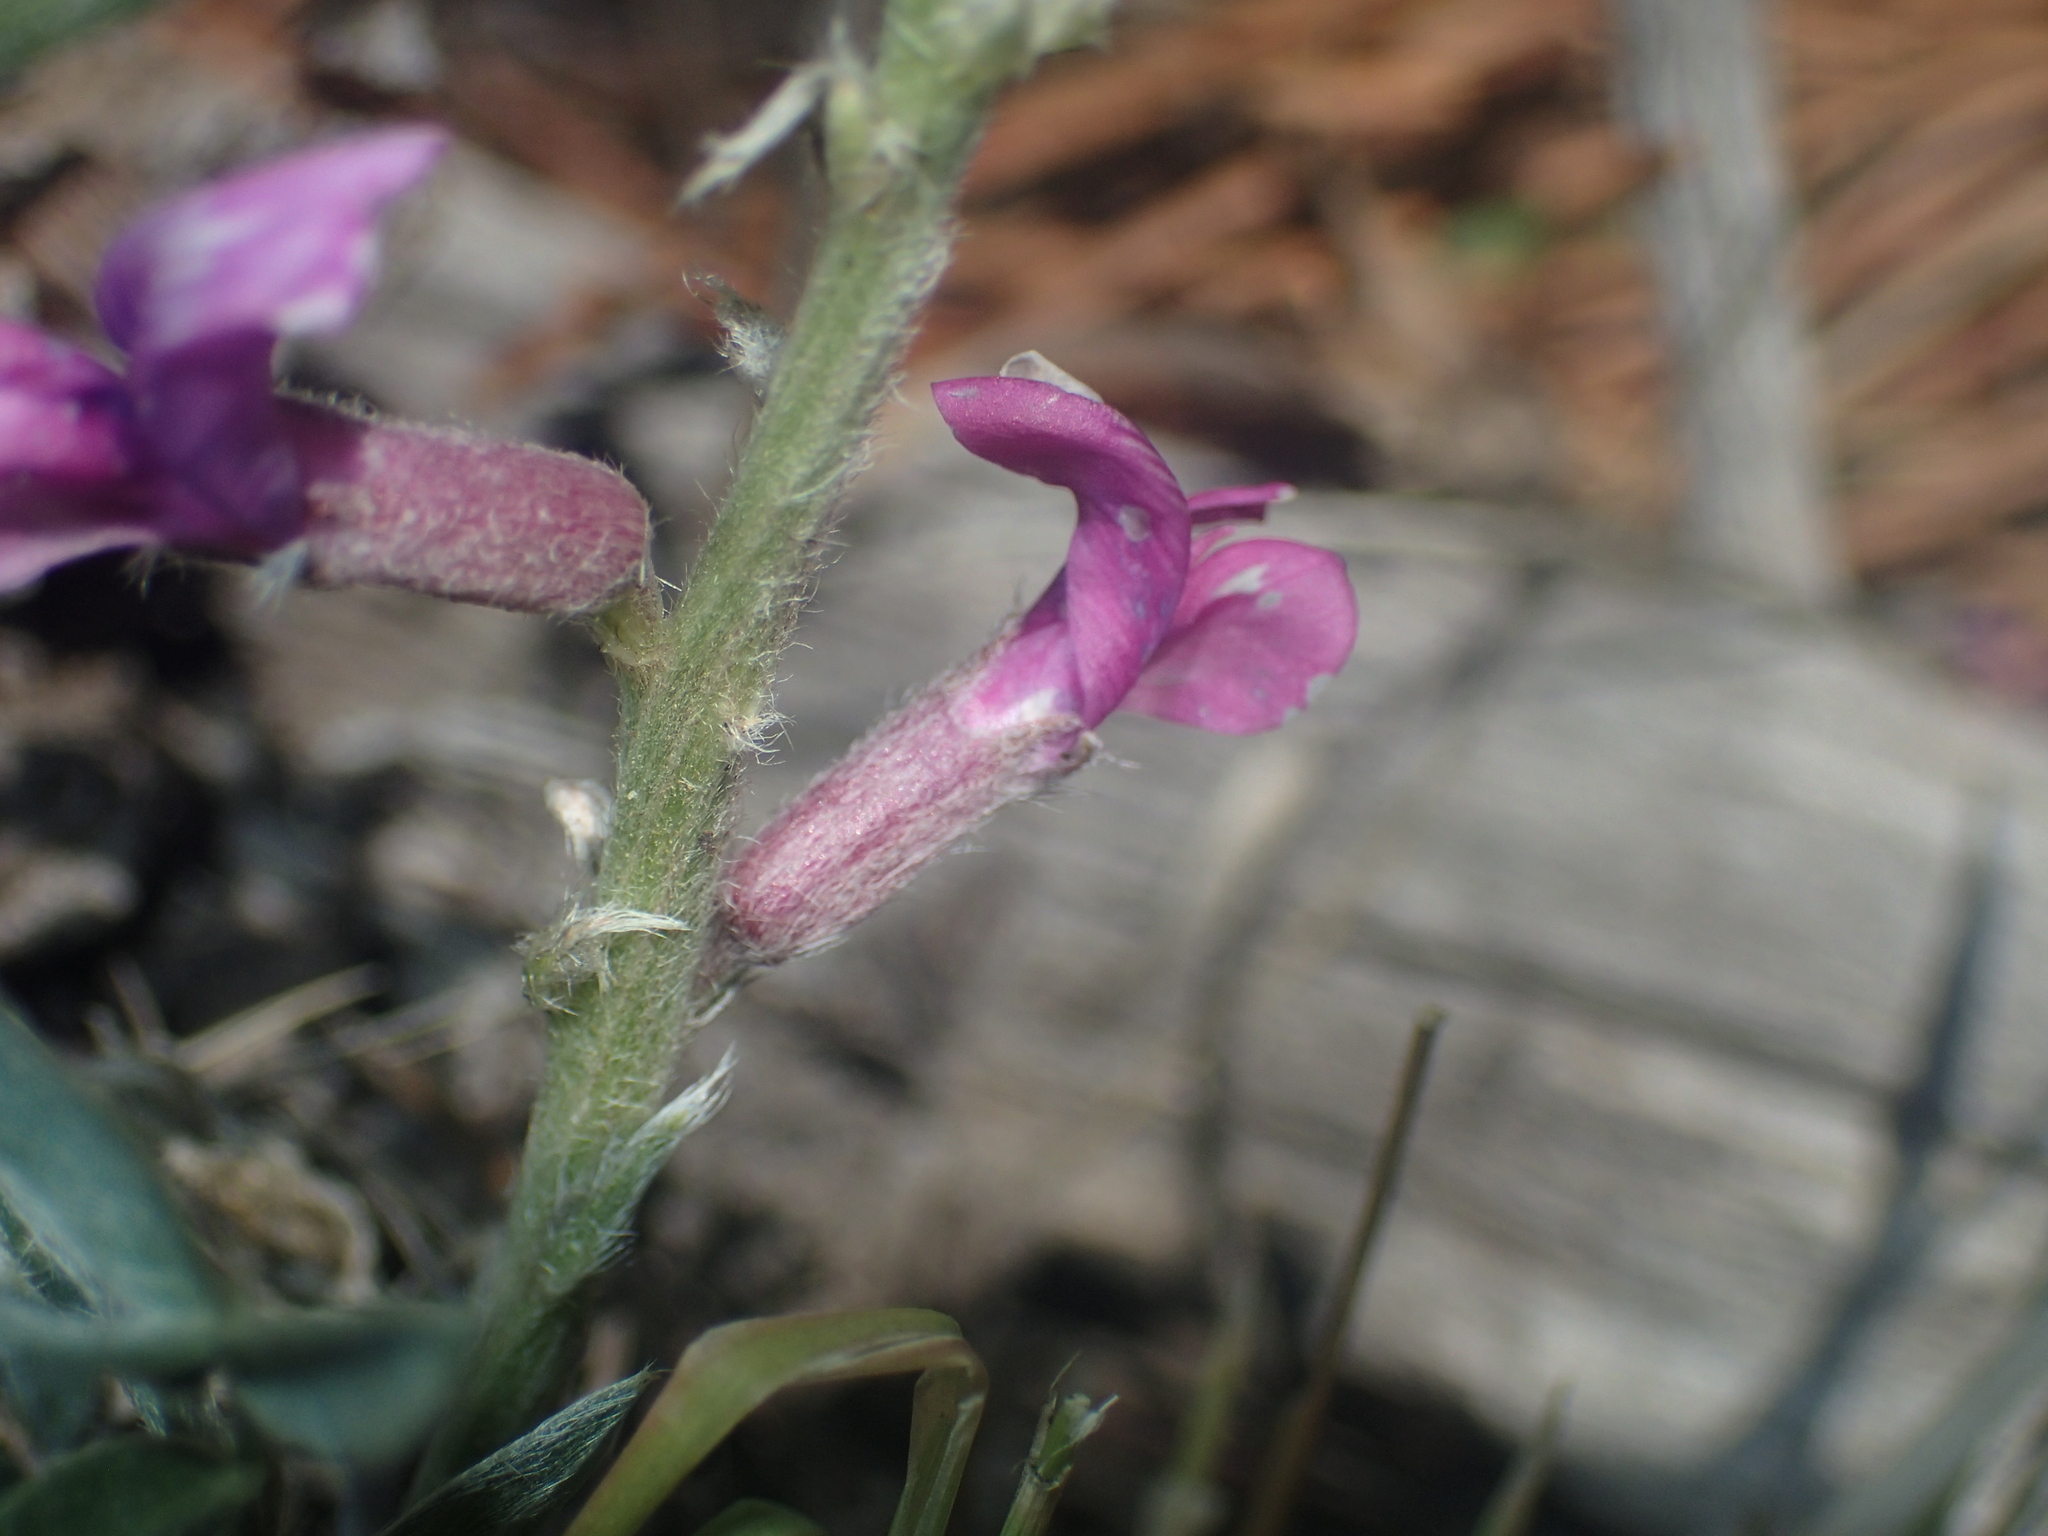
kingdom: Plantae
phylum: Tracheophyta
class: Magnoliopsida
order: Fabales
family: Fabaceae
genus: Oxytropis
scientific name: Oxytropis lambertii
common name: Purple locoweed
